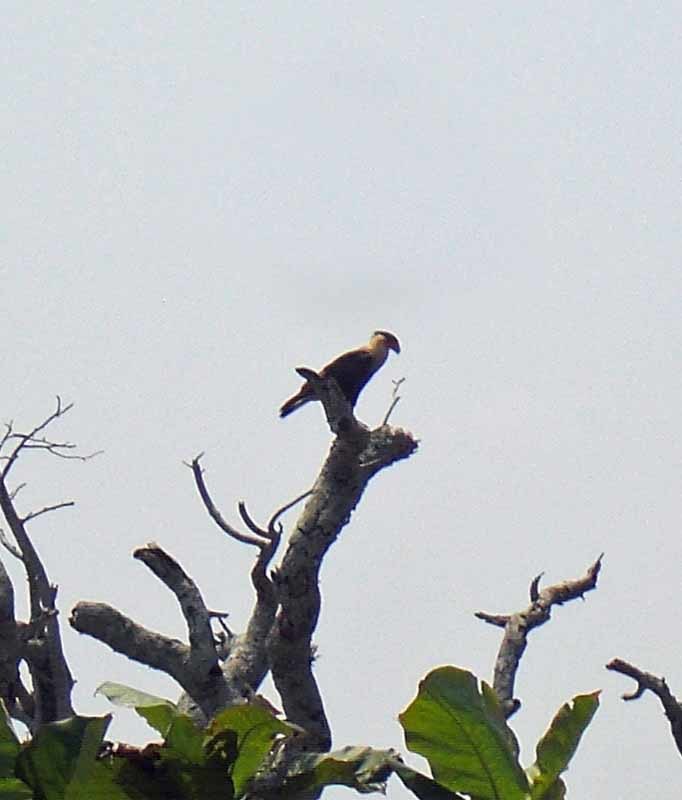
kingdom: Animalia
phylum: Chordata
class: Aves
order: Falconiformes
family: Falconidae
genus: Caracara
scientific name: Caracara plancus
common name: Southern caracara
